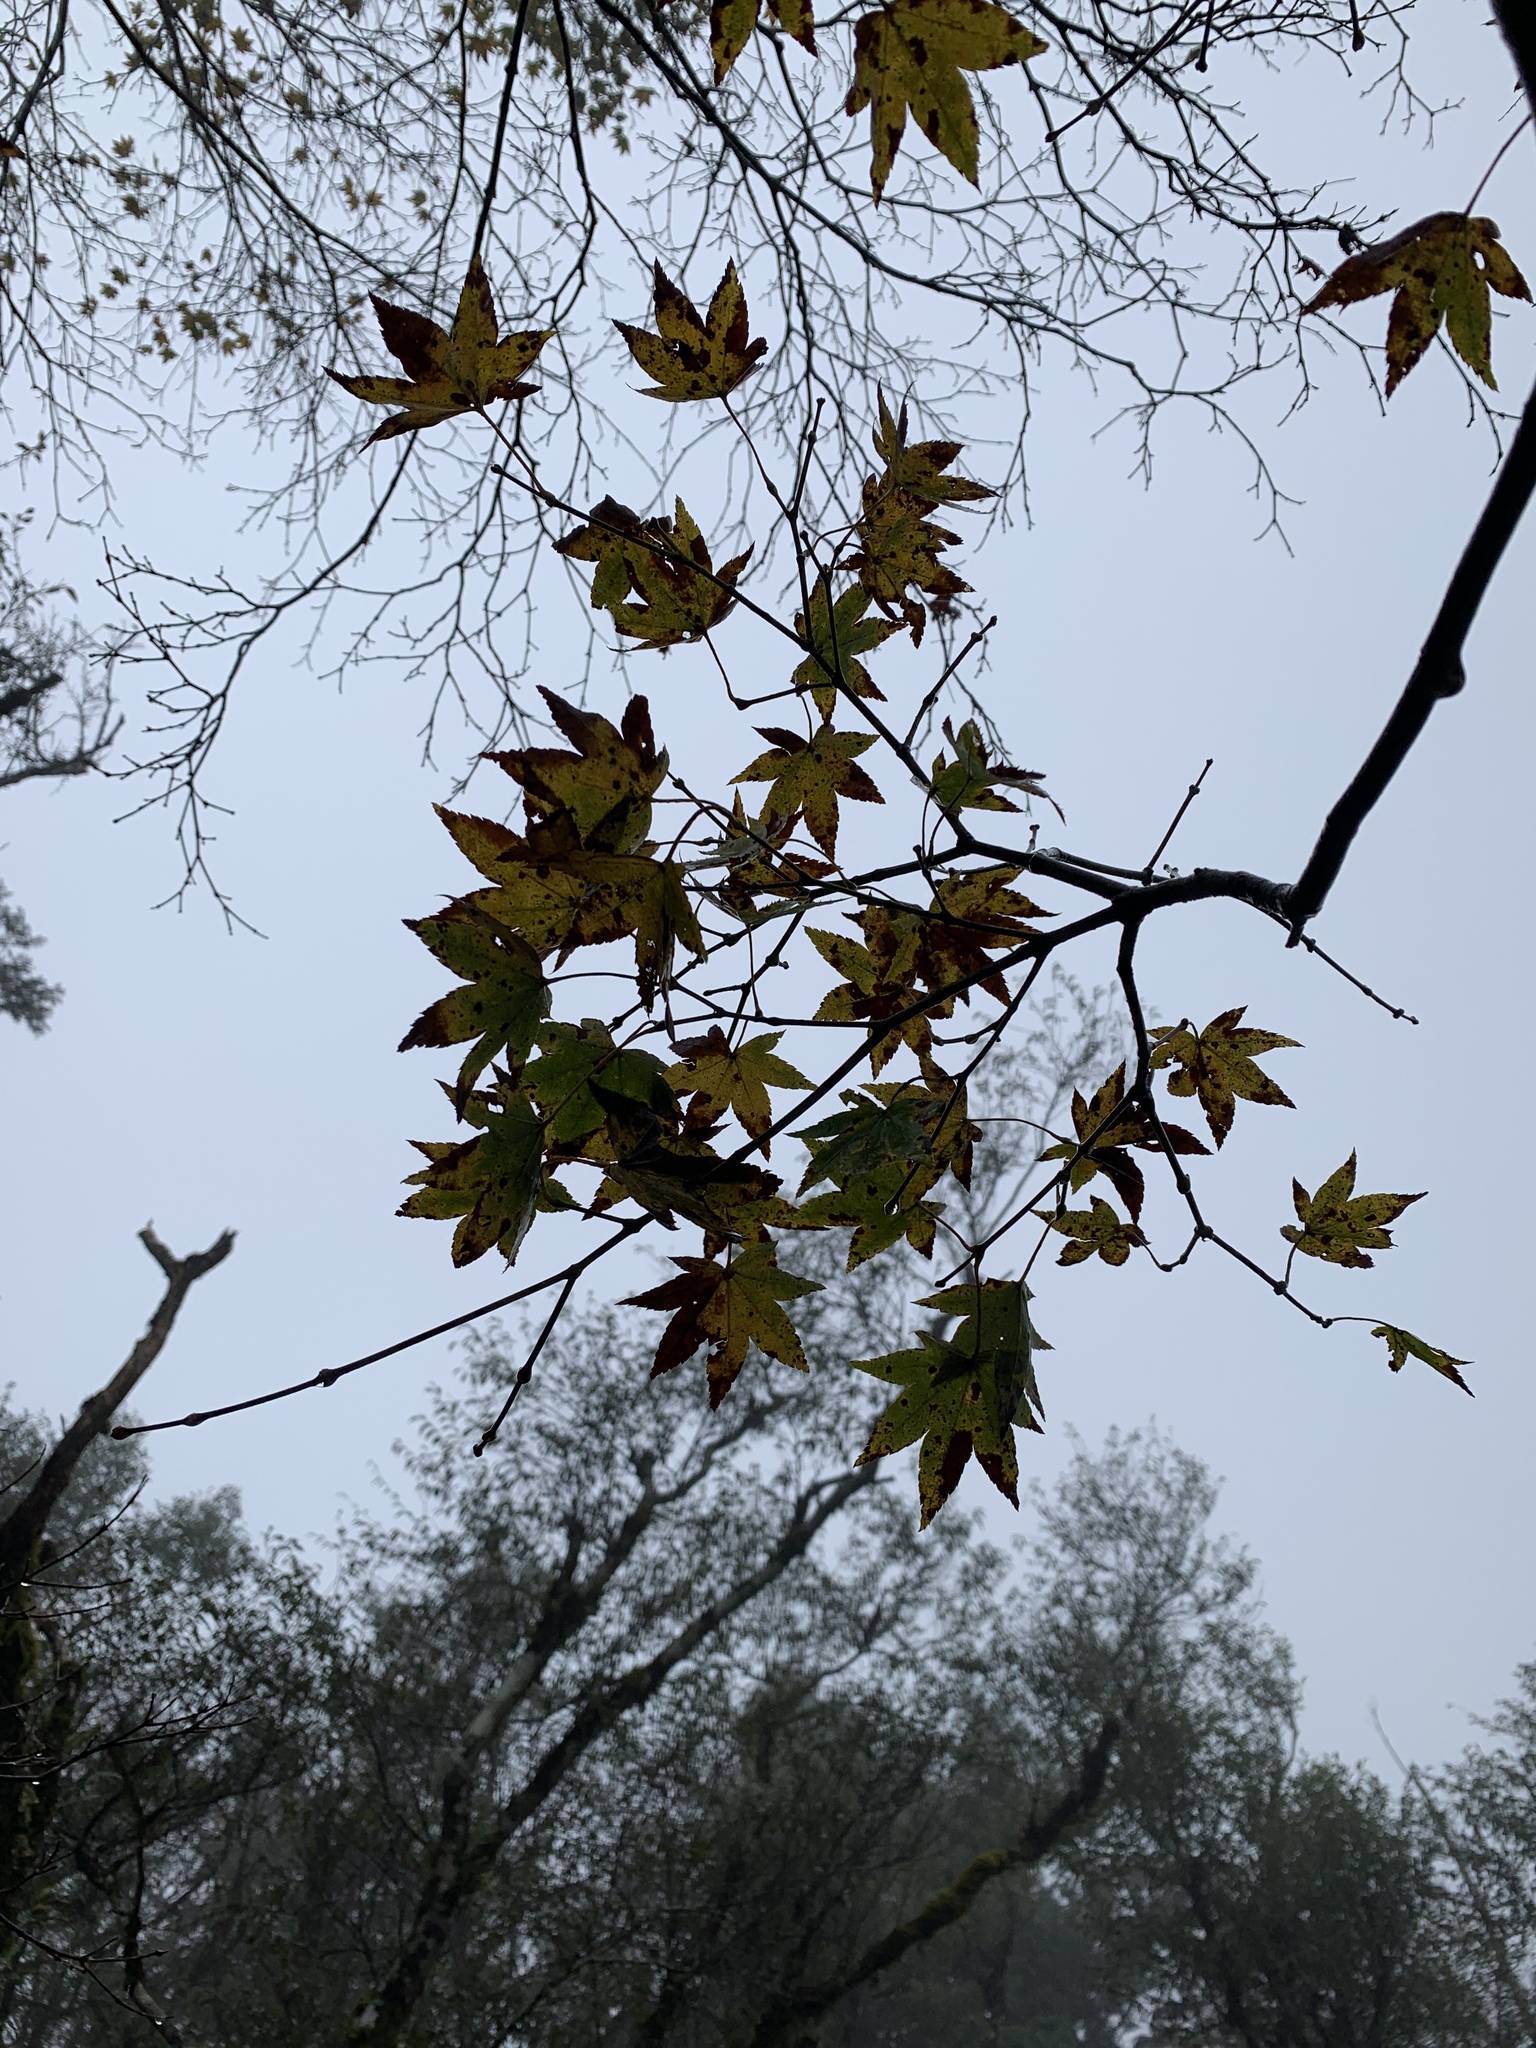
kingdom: Plantae
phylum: Tracheophyta
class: Magnoliopsida
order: Sapindales
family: Sapindaceae
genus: Acer
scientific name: Acer palmatum
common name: Japanese maple
